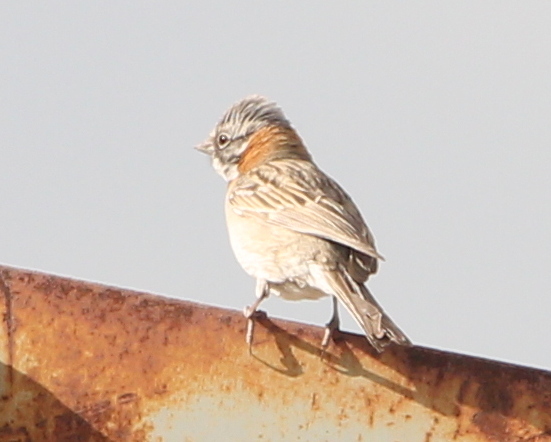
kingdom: Animalia
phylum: Chordata
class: Aves
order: Passeriformes
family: Passerellidae
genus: Zonotrichia
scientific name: Zonotrichia capensis
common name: Rufous-collared sparrow
